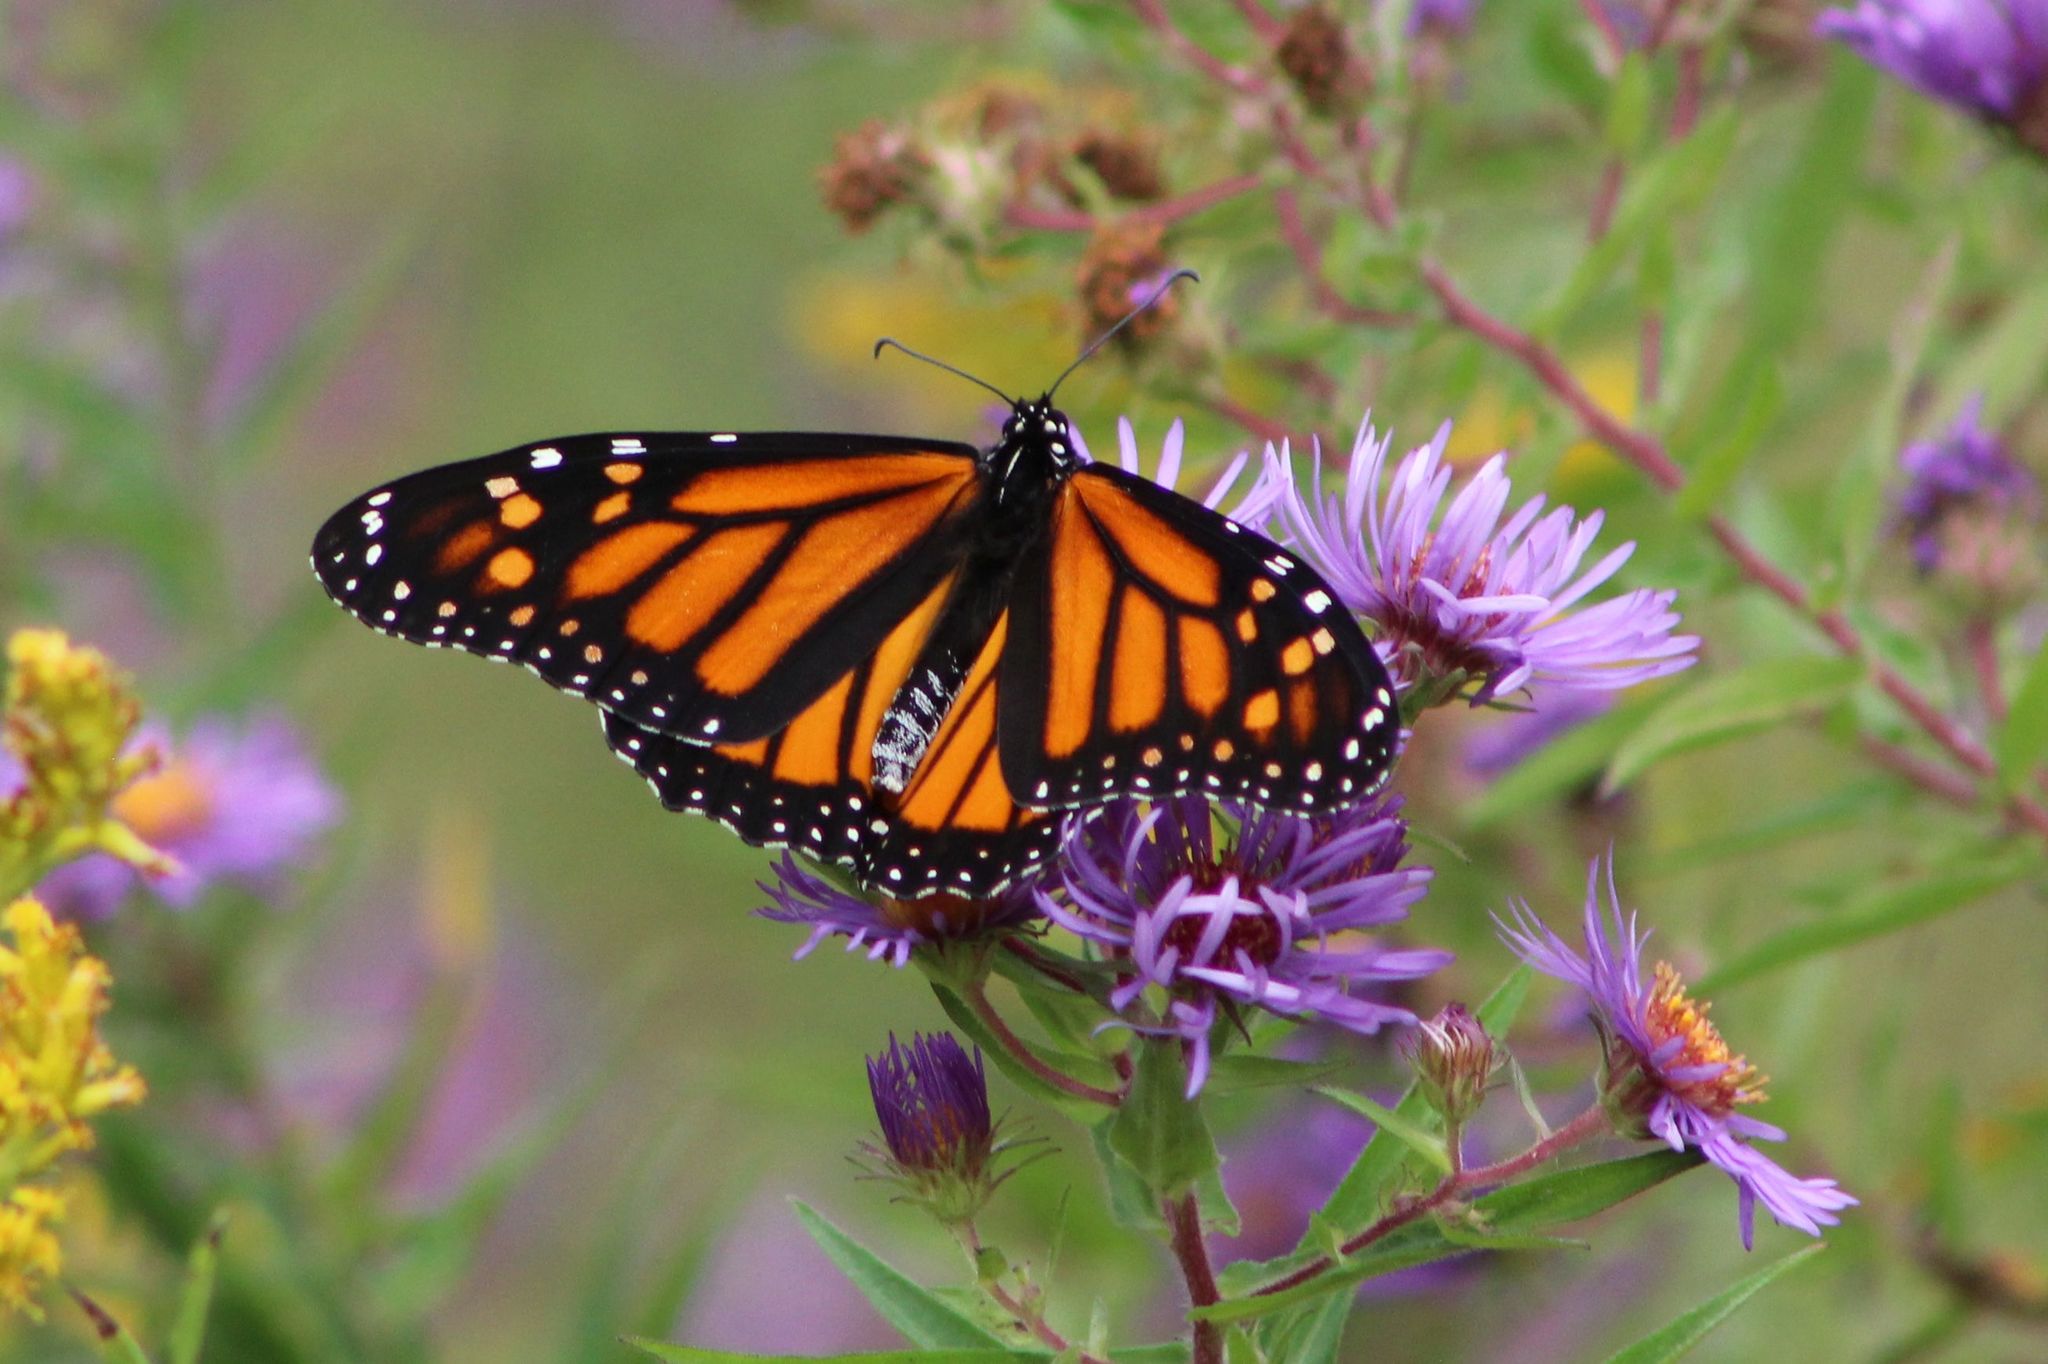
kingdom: Animalia
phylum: Arthropoda
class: Insecta
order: Lepidoptera
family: Nymphalidae
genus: Danaus
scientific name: Danaus plexippus
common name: Monarch
